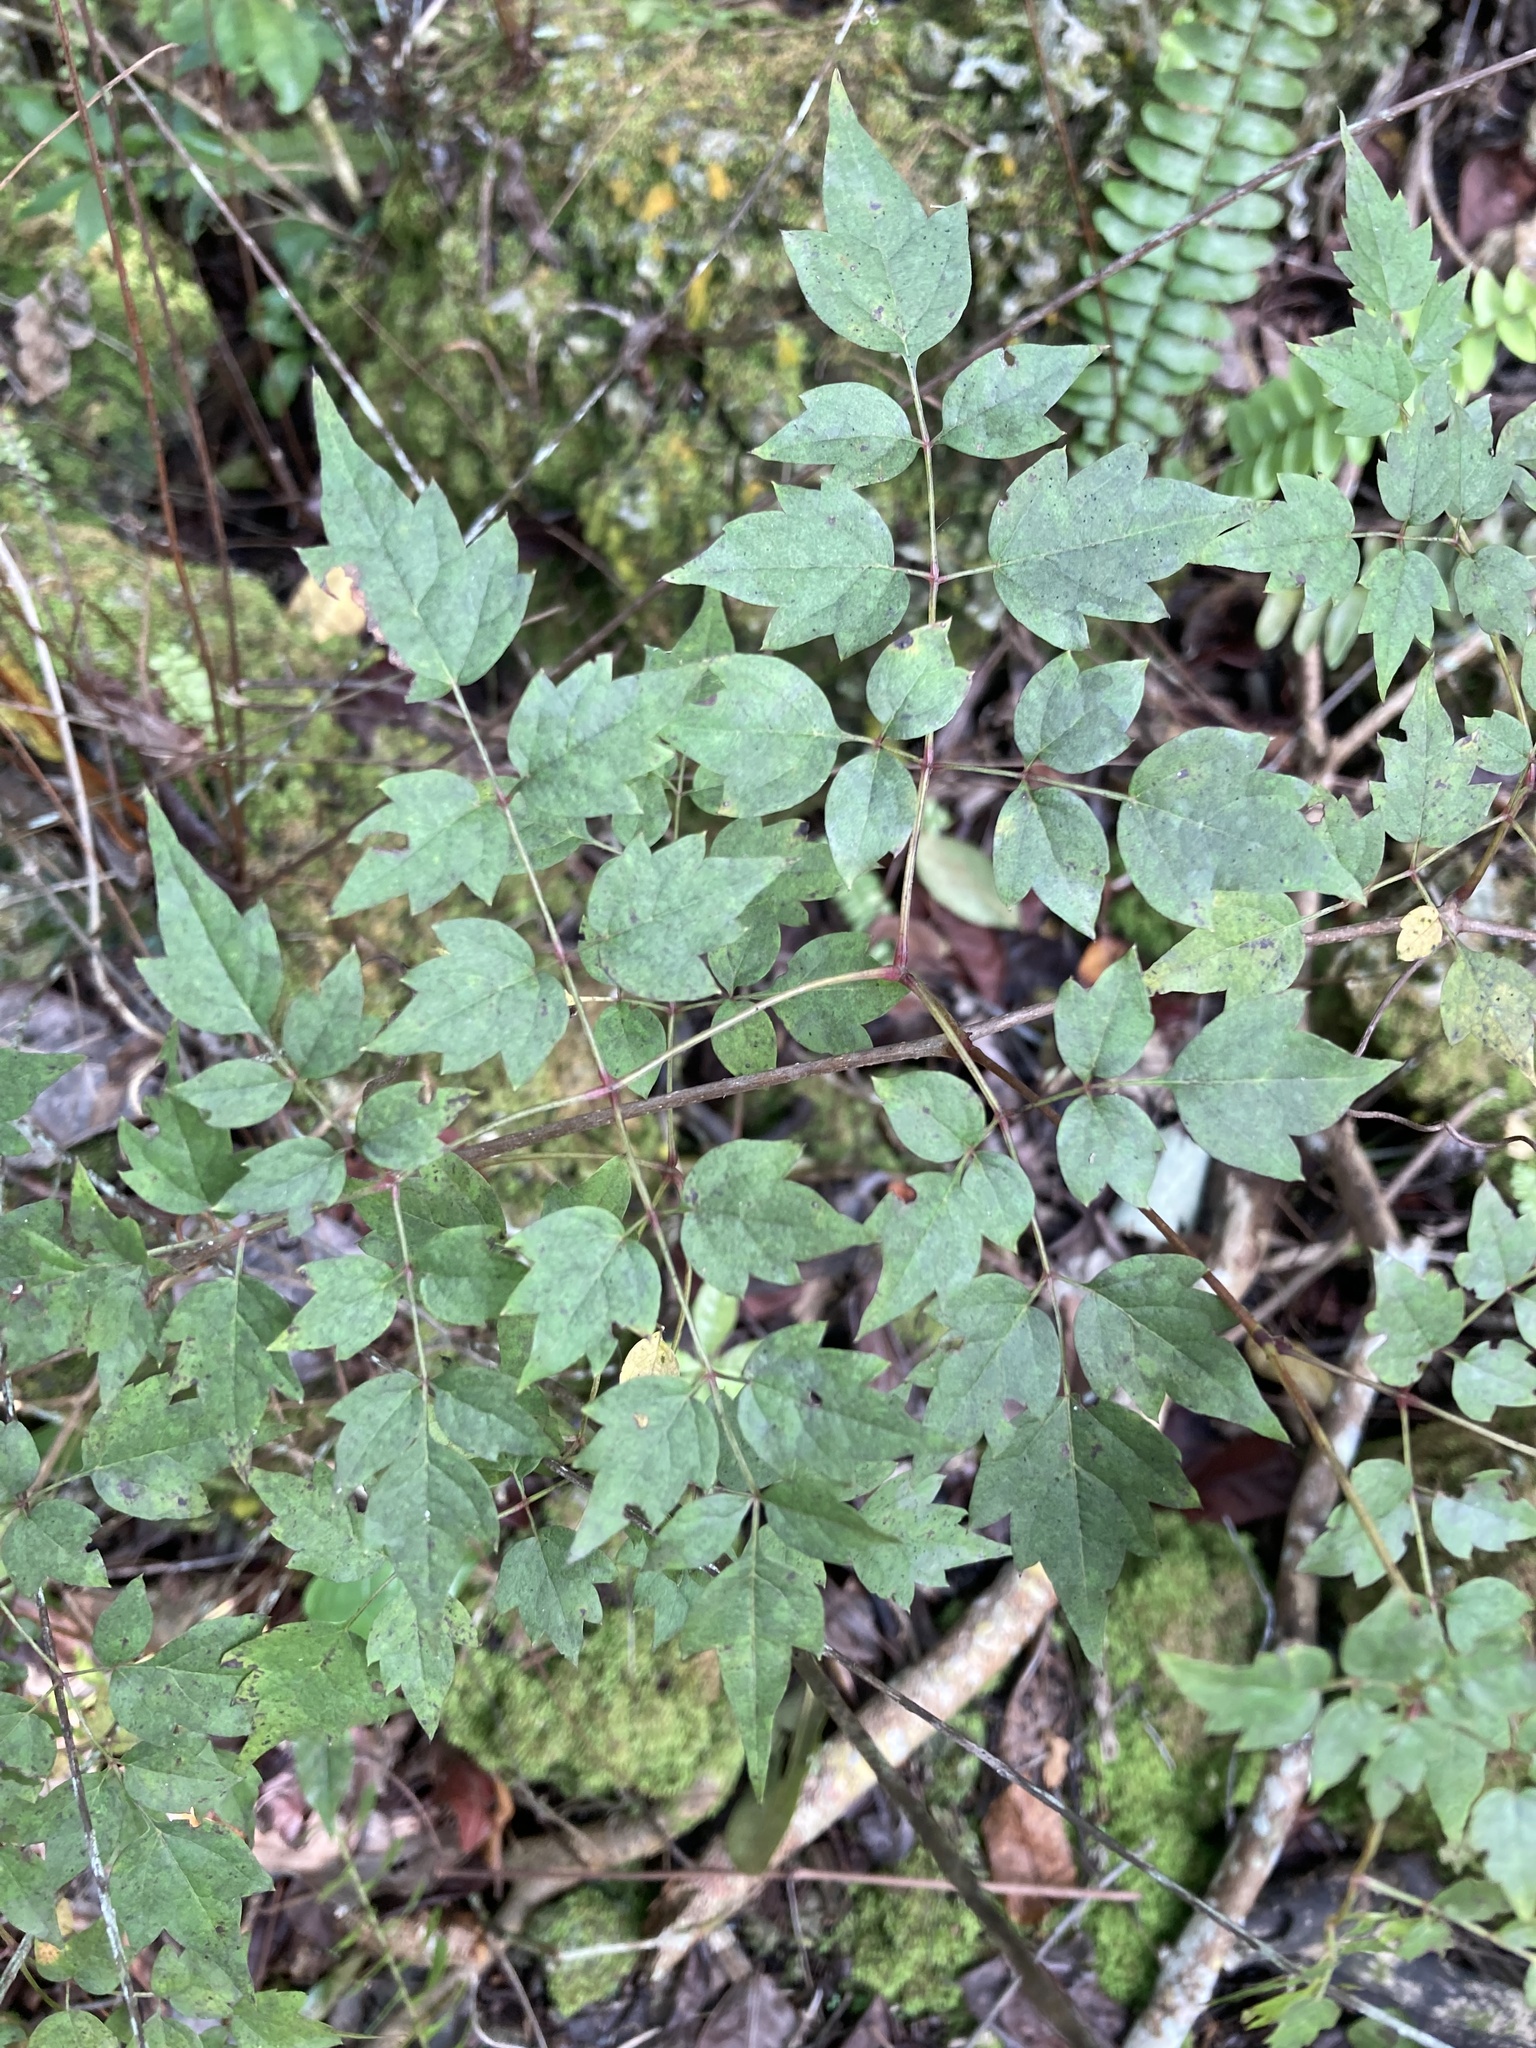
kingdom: Plantae
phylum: Tracheophyta
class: Magnoliopsida
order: Vitales
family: Vitaceae
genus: Nekemias
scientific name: Nekemias arborea
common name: Peppervine
